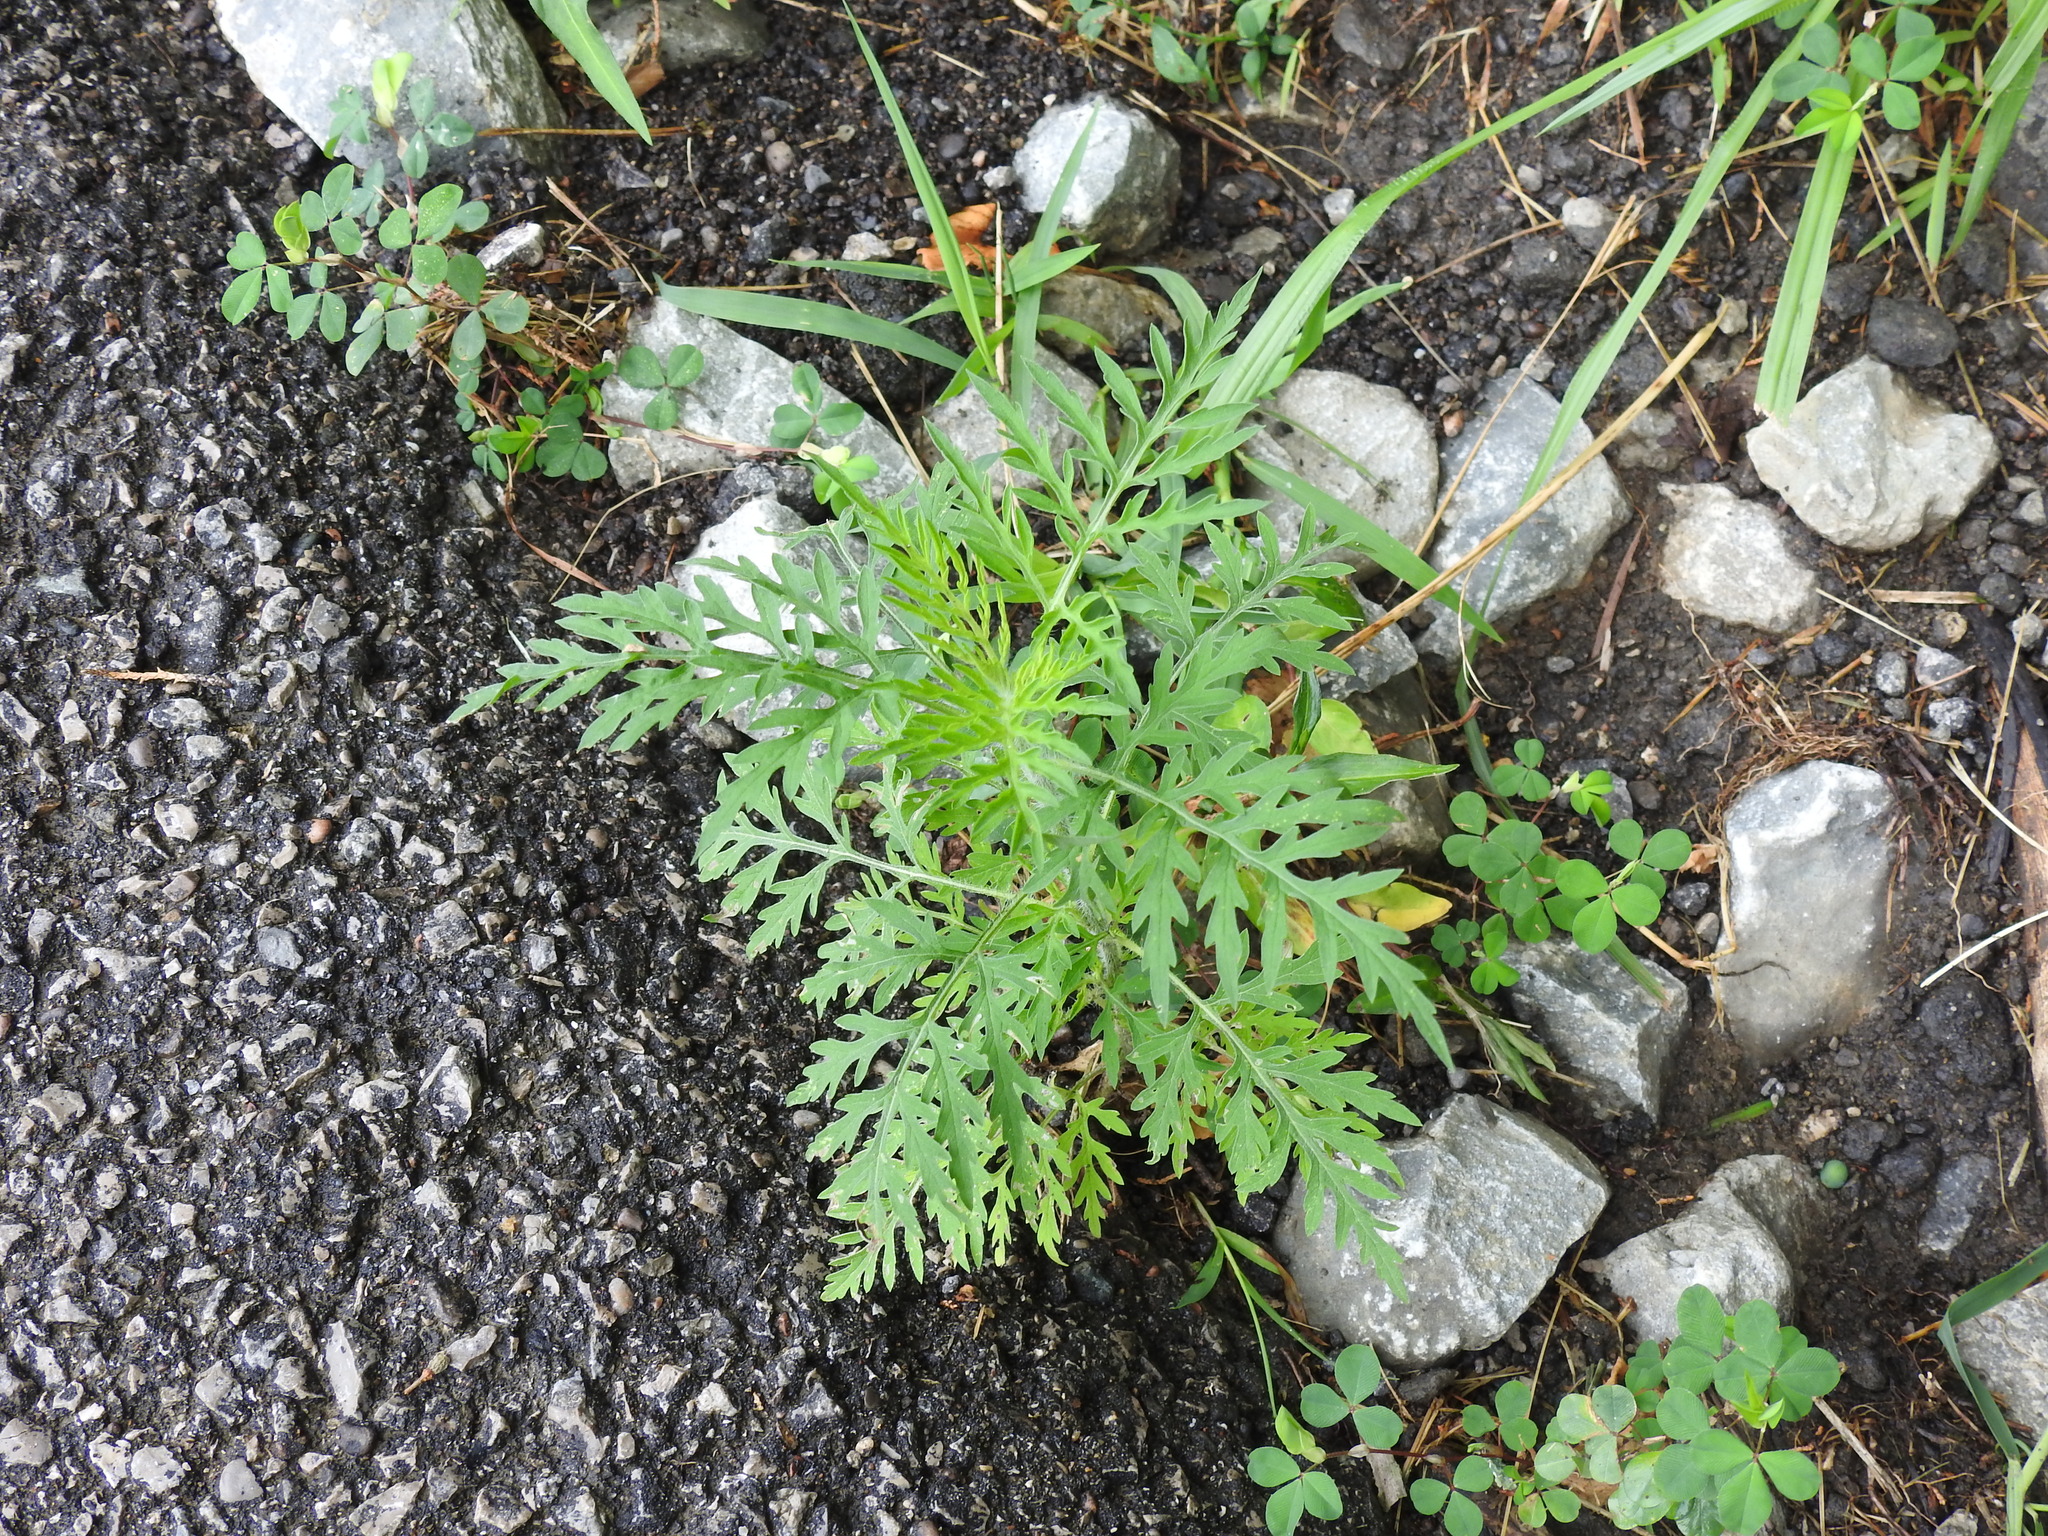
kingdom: Plantae
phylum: Tracheophyta
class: Magnoliopsida
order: Asterales
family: Asteraceae
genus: Ambrosia
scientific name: Ambrosia artemisiifolia
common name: Annual ragweed
